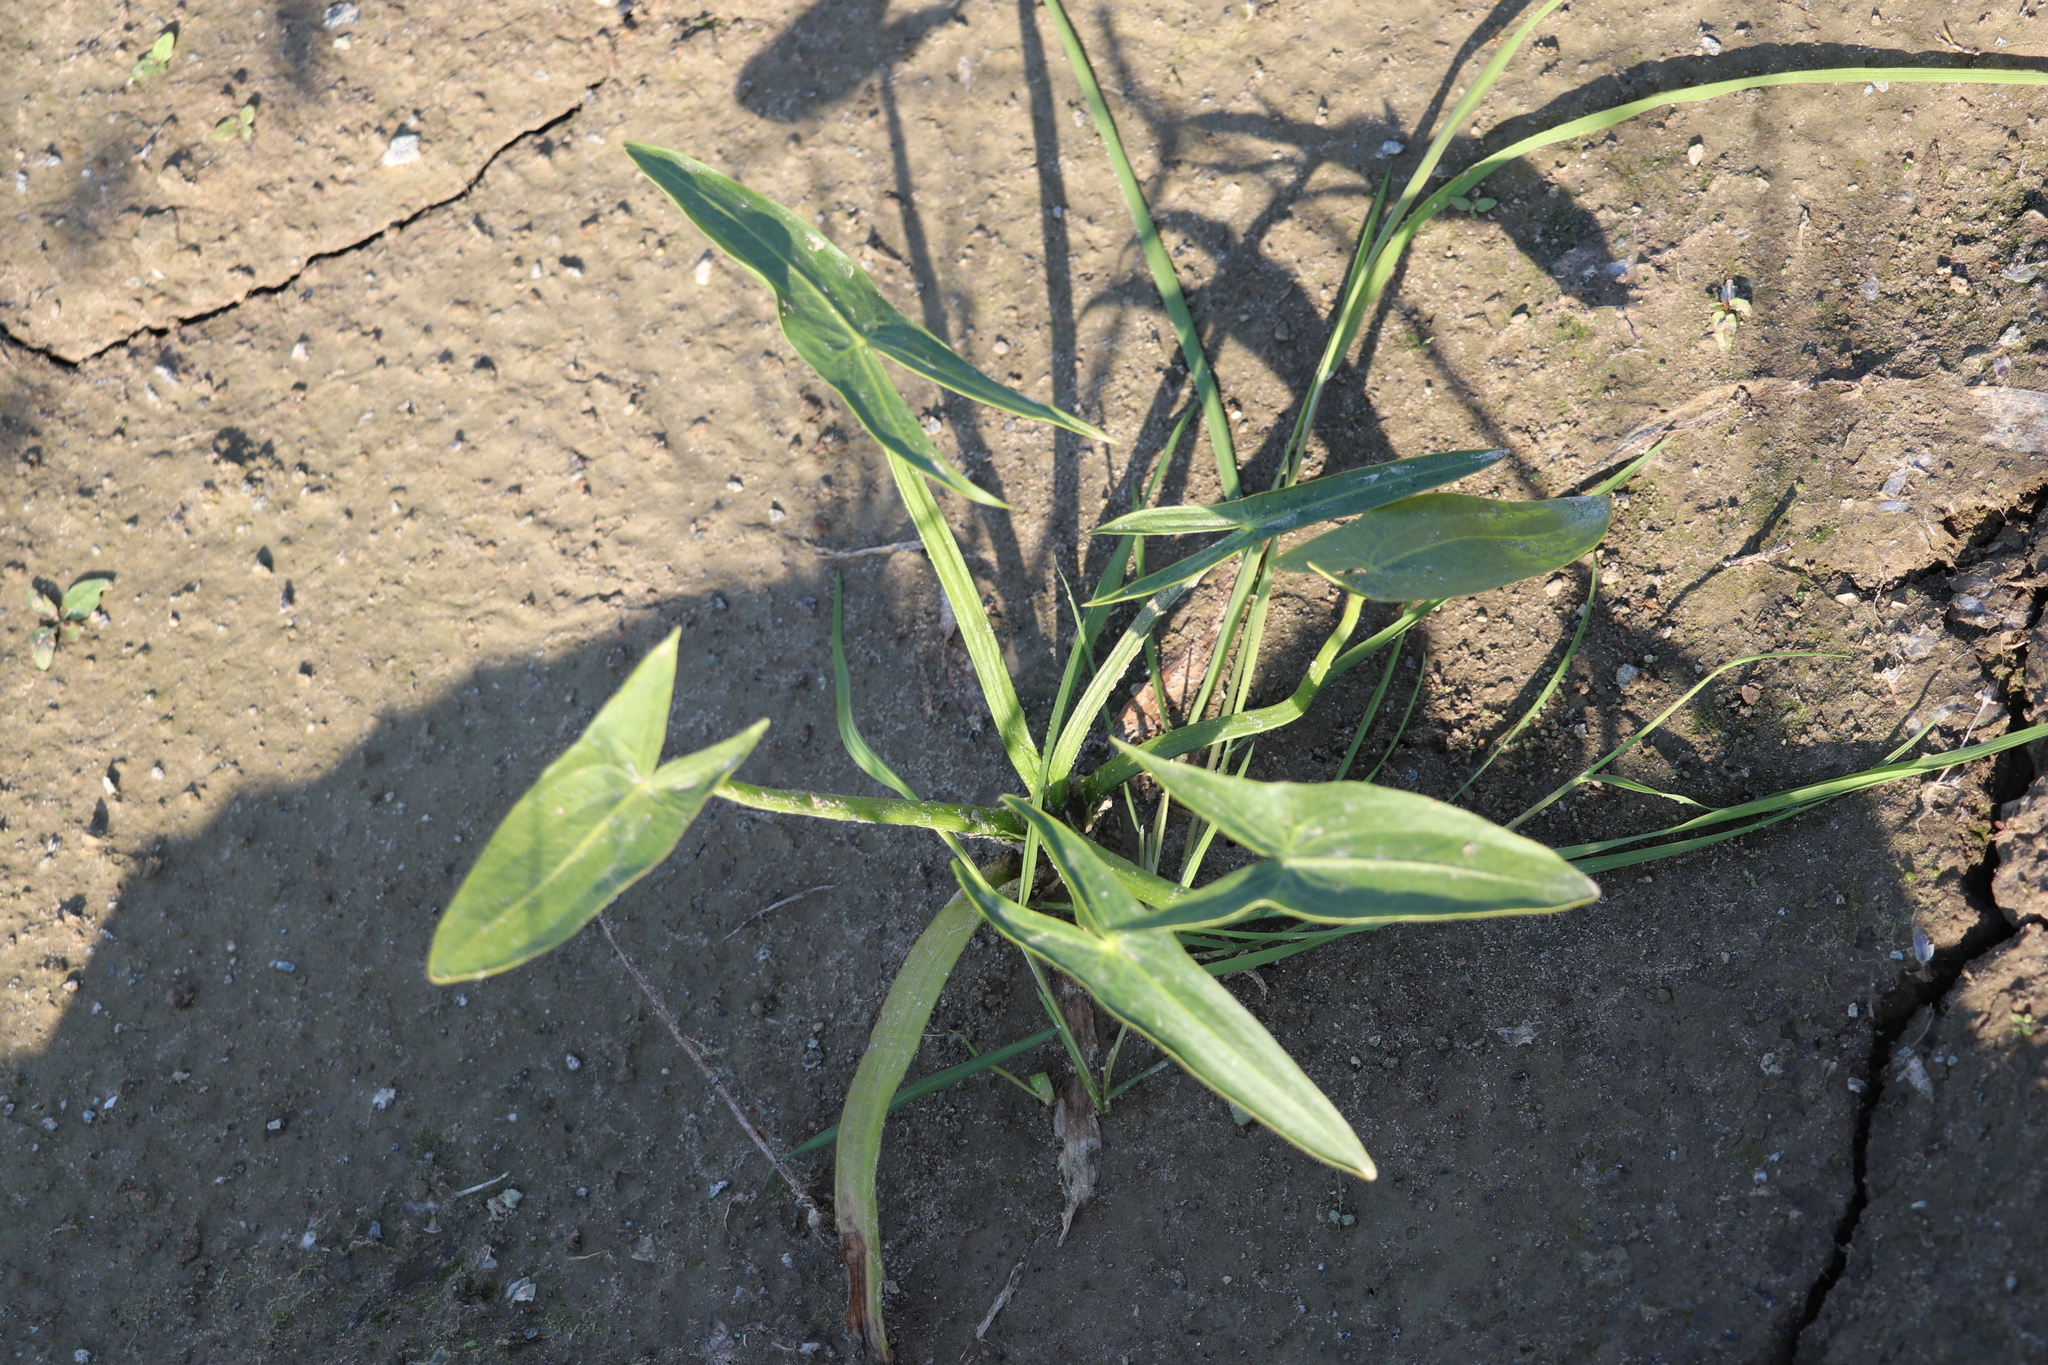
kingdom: Plantae
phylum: Tracheophyta
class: Liliopsida
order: Alismatales
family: Alismataceae
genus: Sagittaria
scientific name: Sagittaria sagittifolia
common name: Arrowhead
